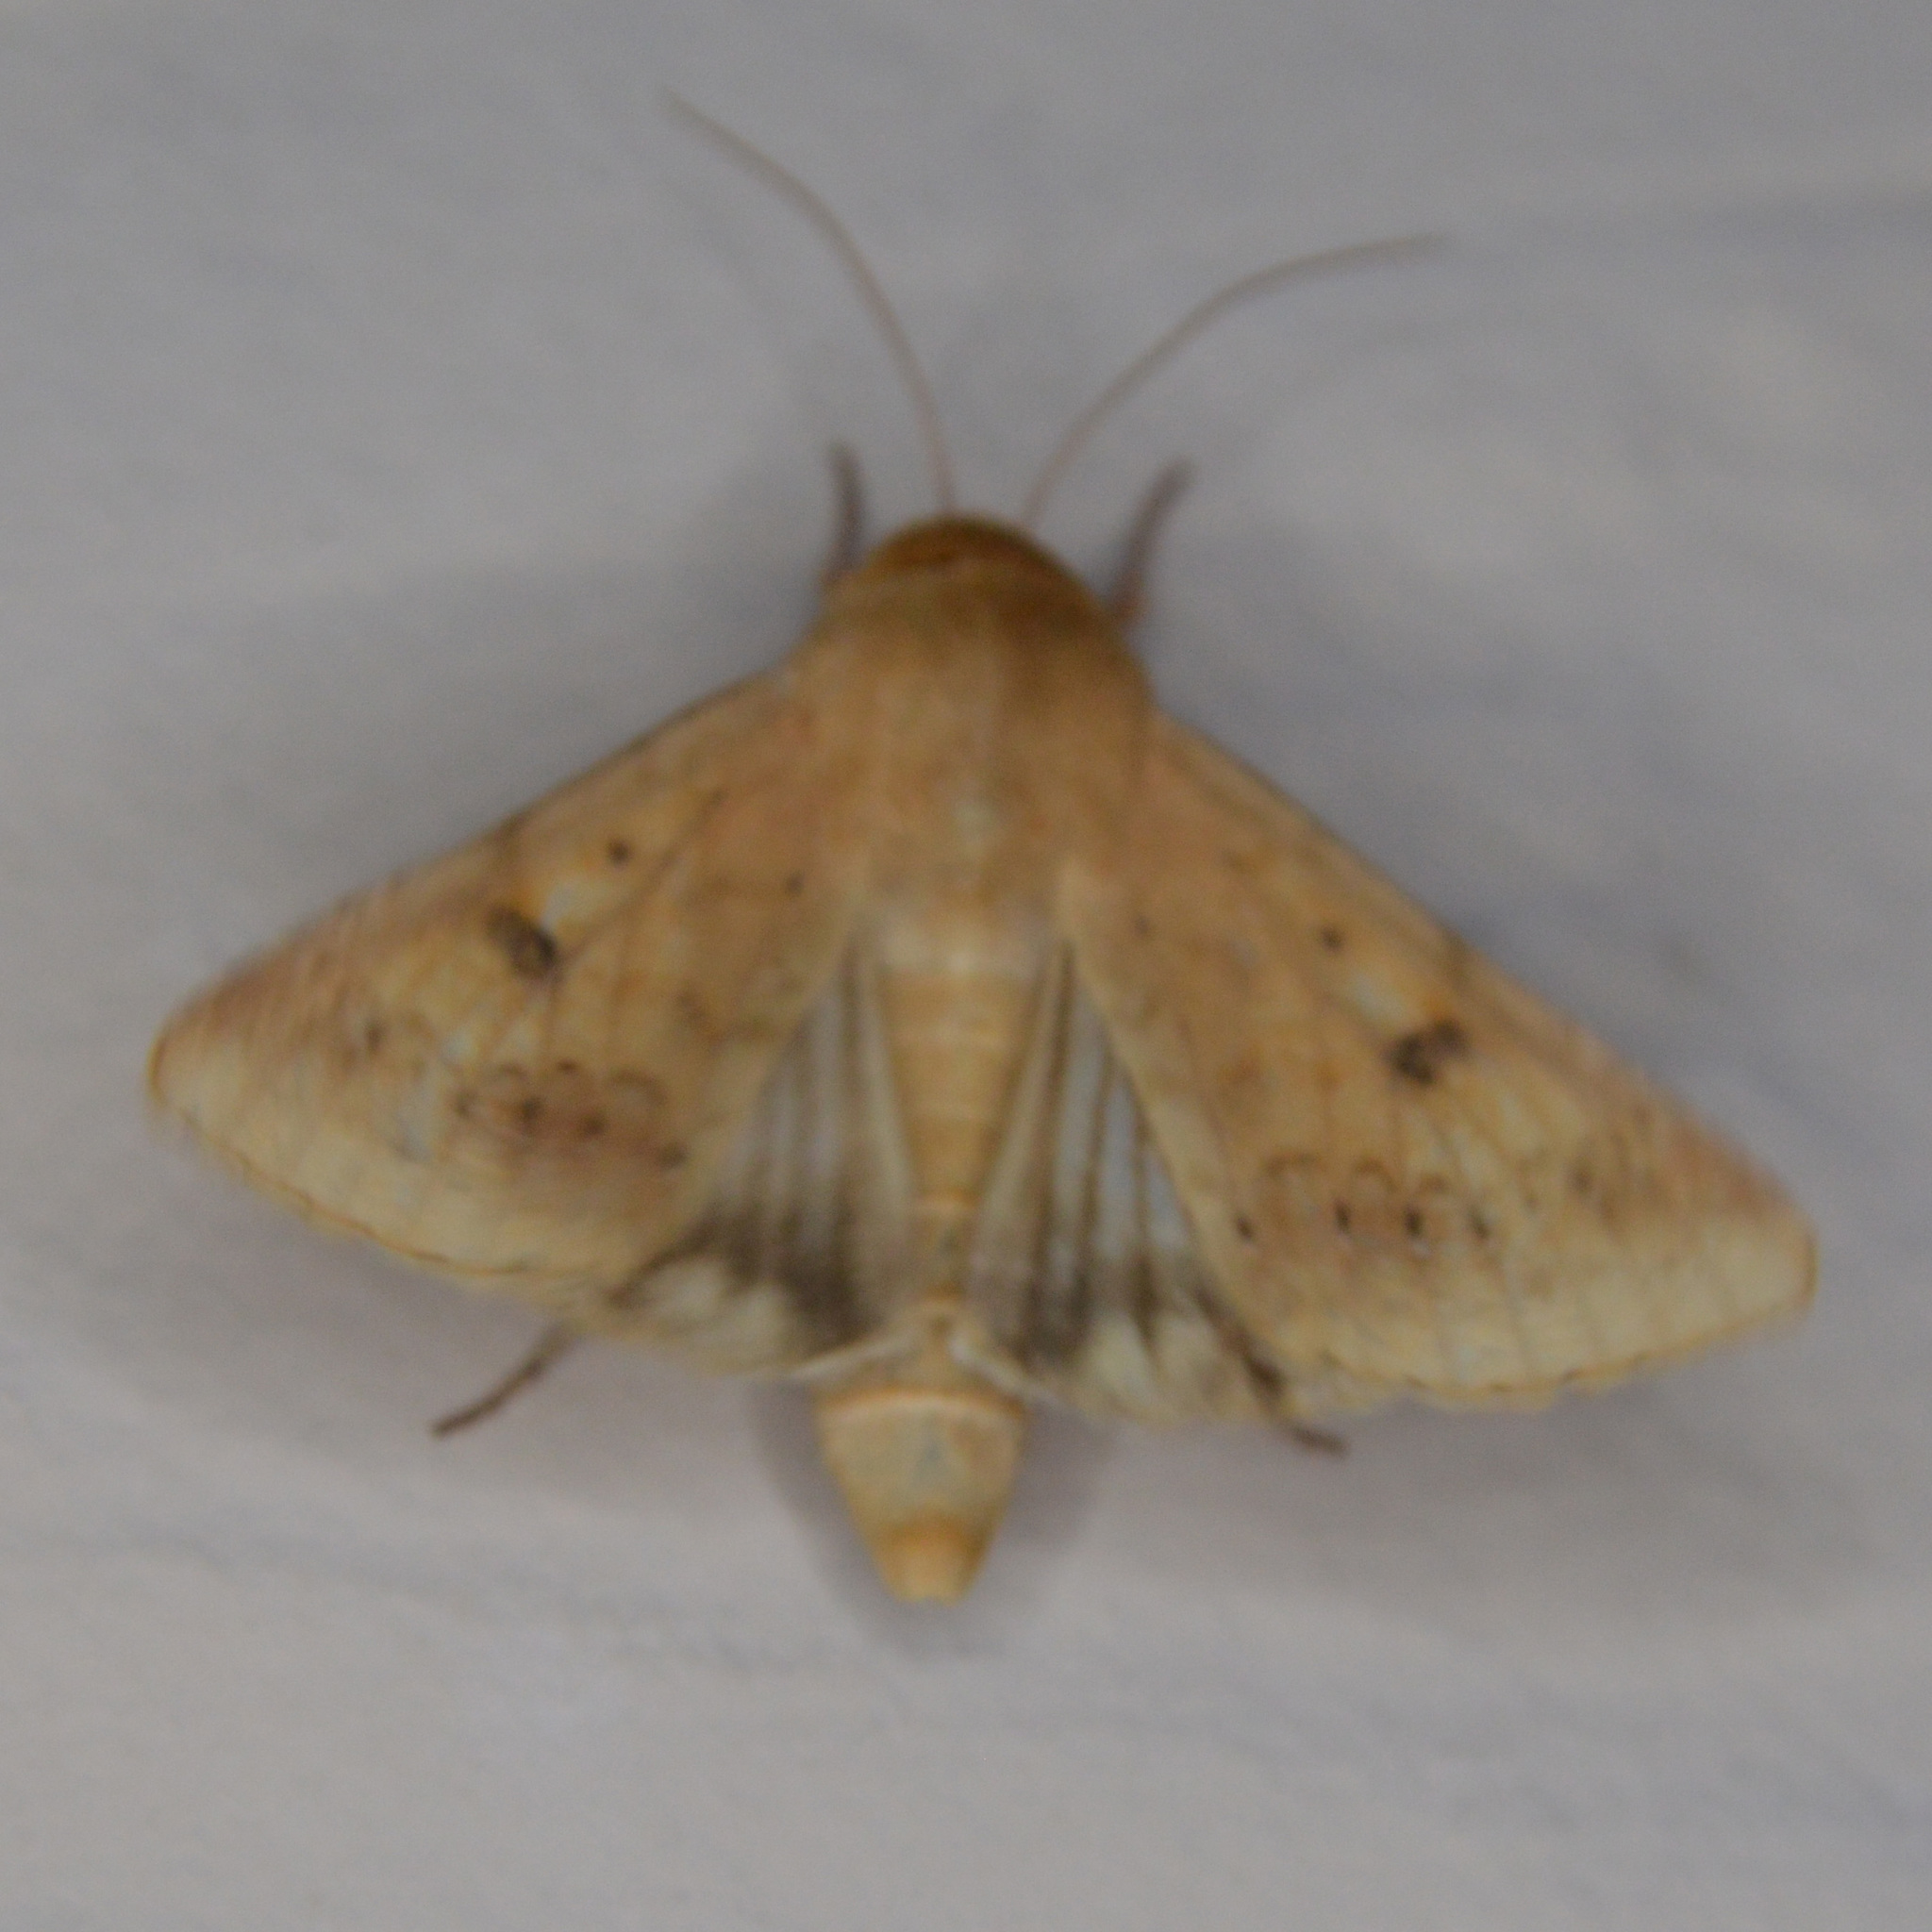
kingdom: Animalia
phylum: Arthropoda
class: Insecta
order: Lepidoptera
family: Noctuidae
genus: Helicoverpa
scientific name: Helicoverpa zea
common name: Bollworm
